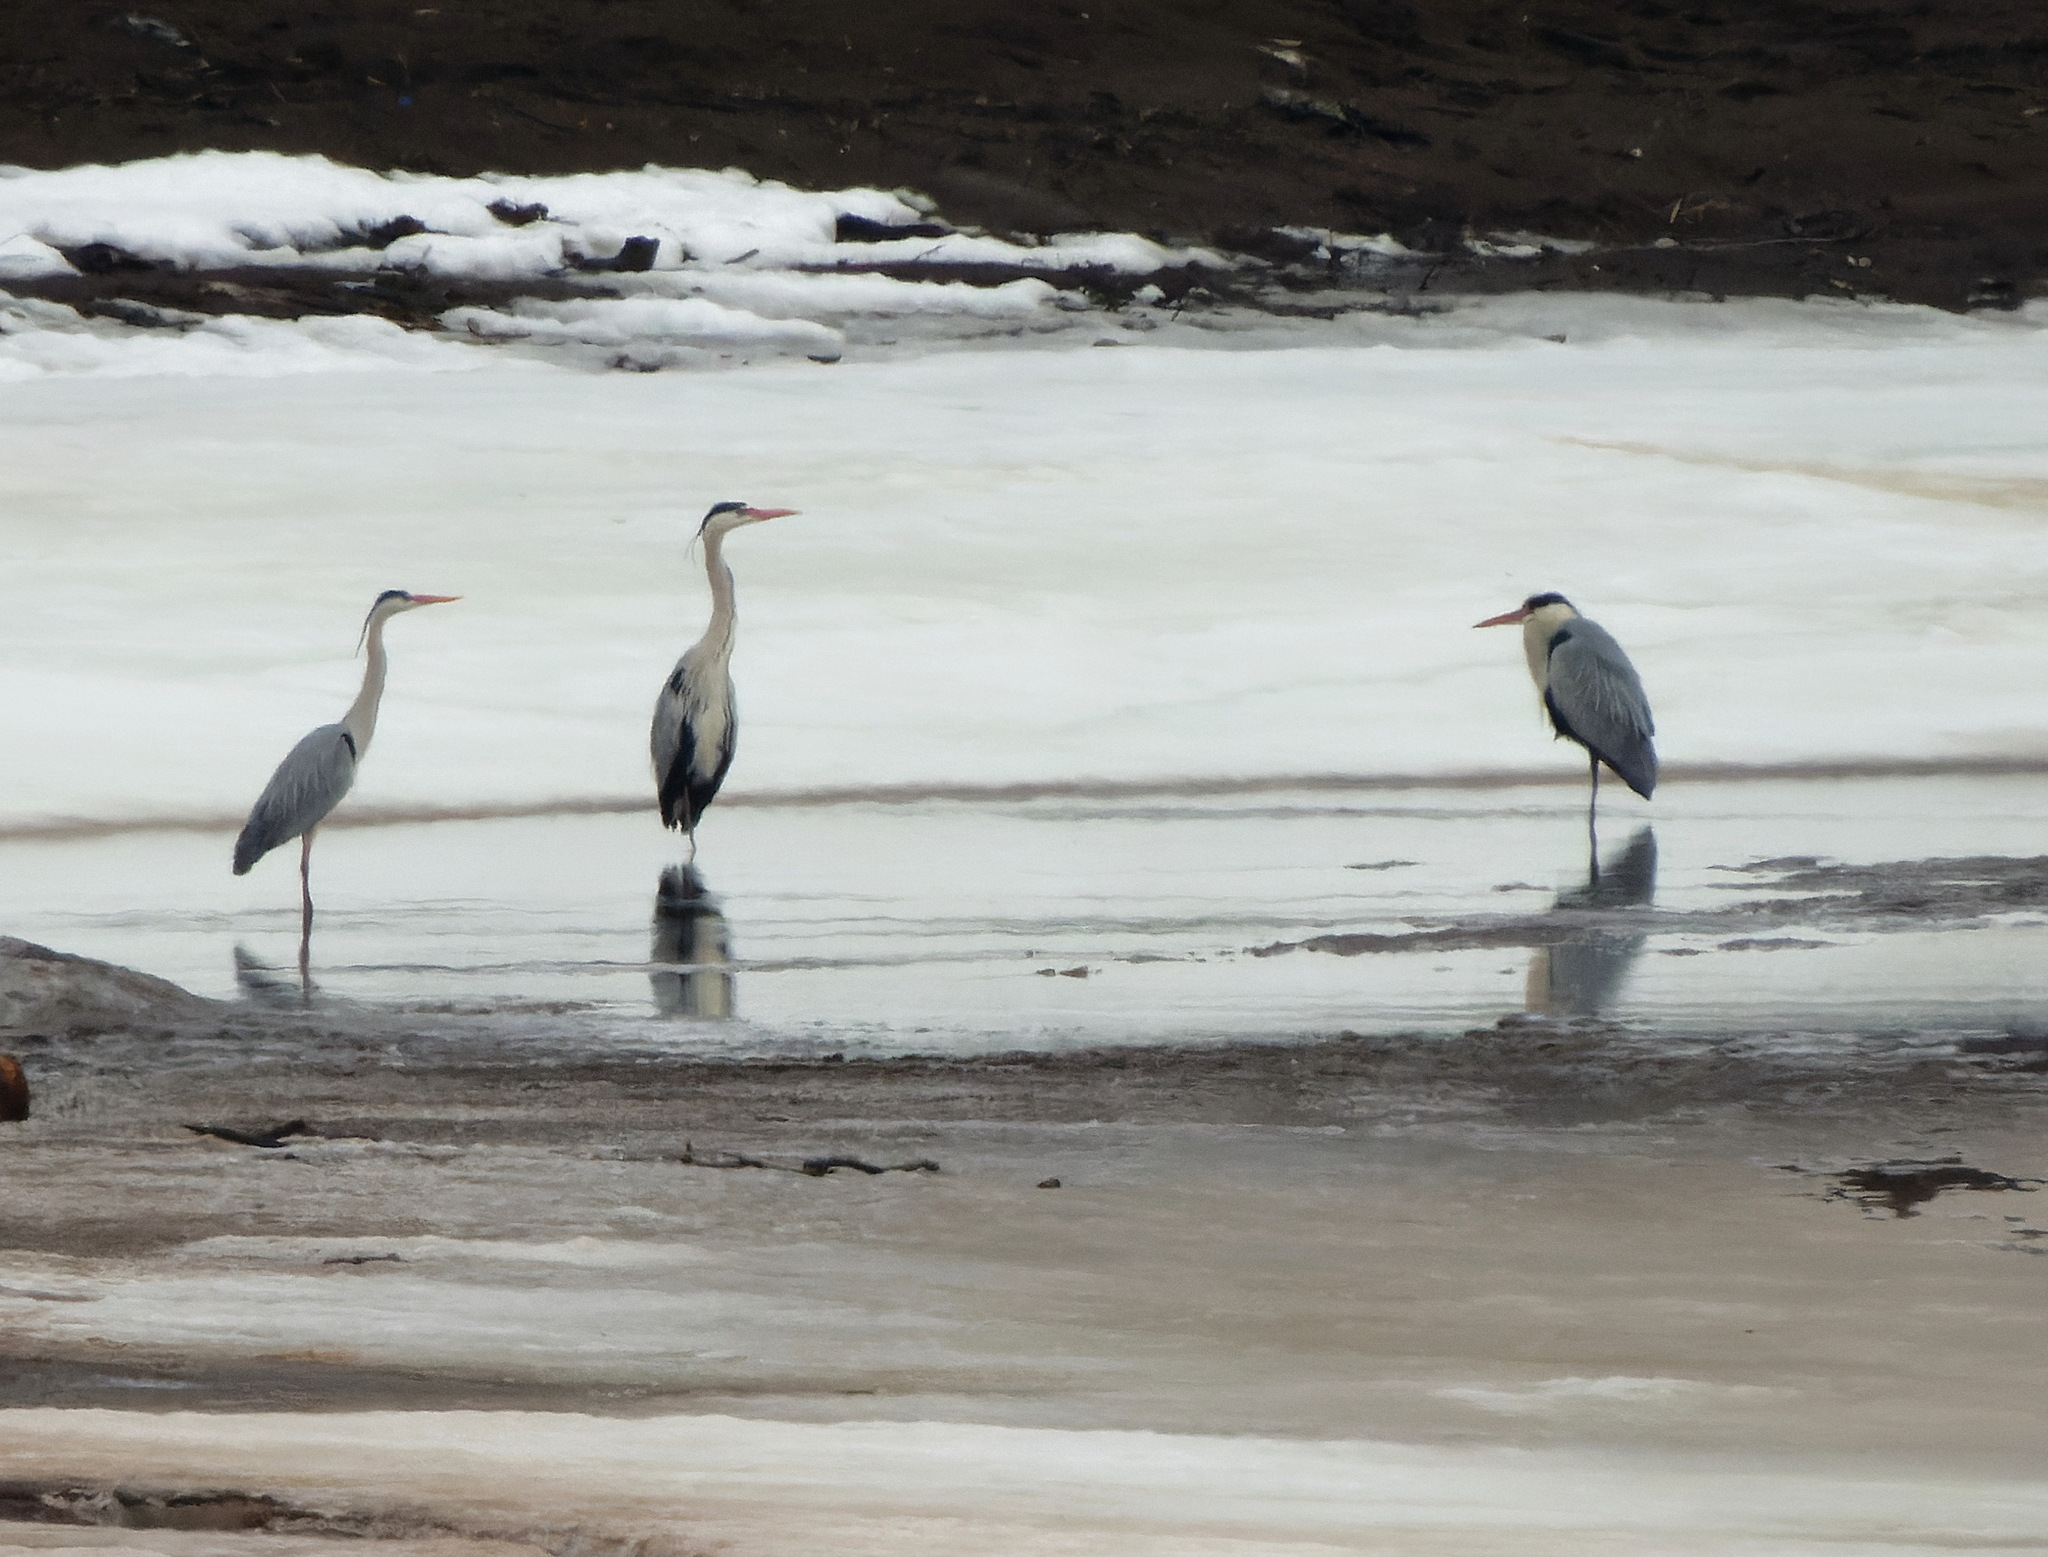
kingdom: Animalia
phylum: Chordata
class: Aves
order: Pelecaniformes
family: Ardeidae
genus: Ardea
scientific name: Ardea cinerea
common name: Grey heron
